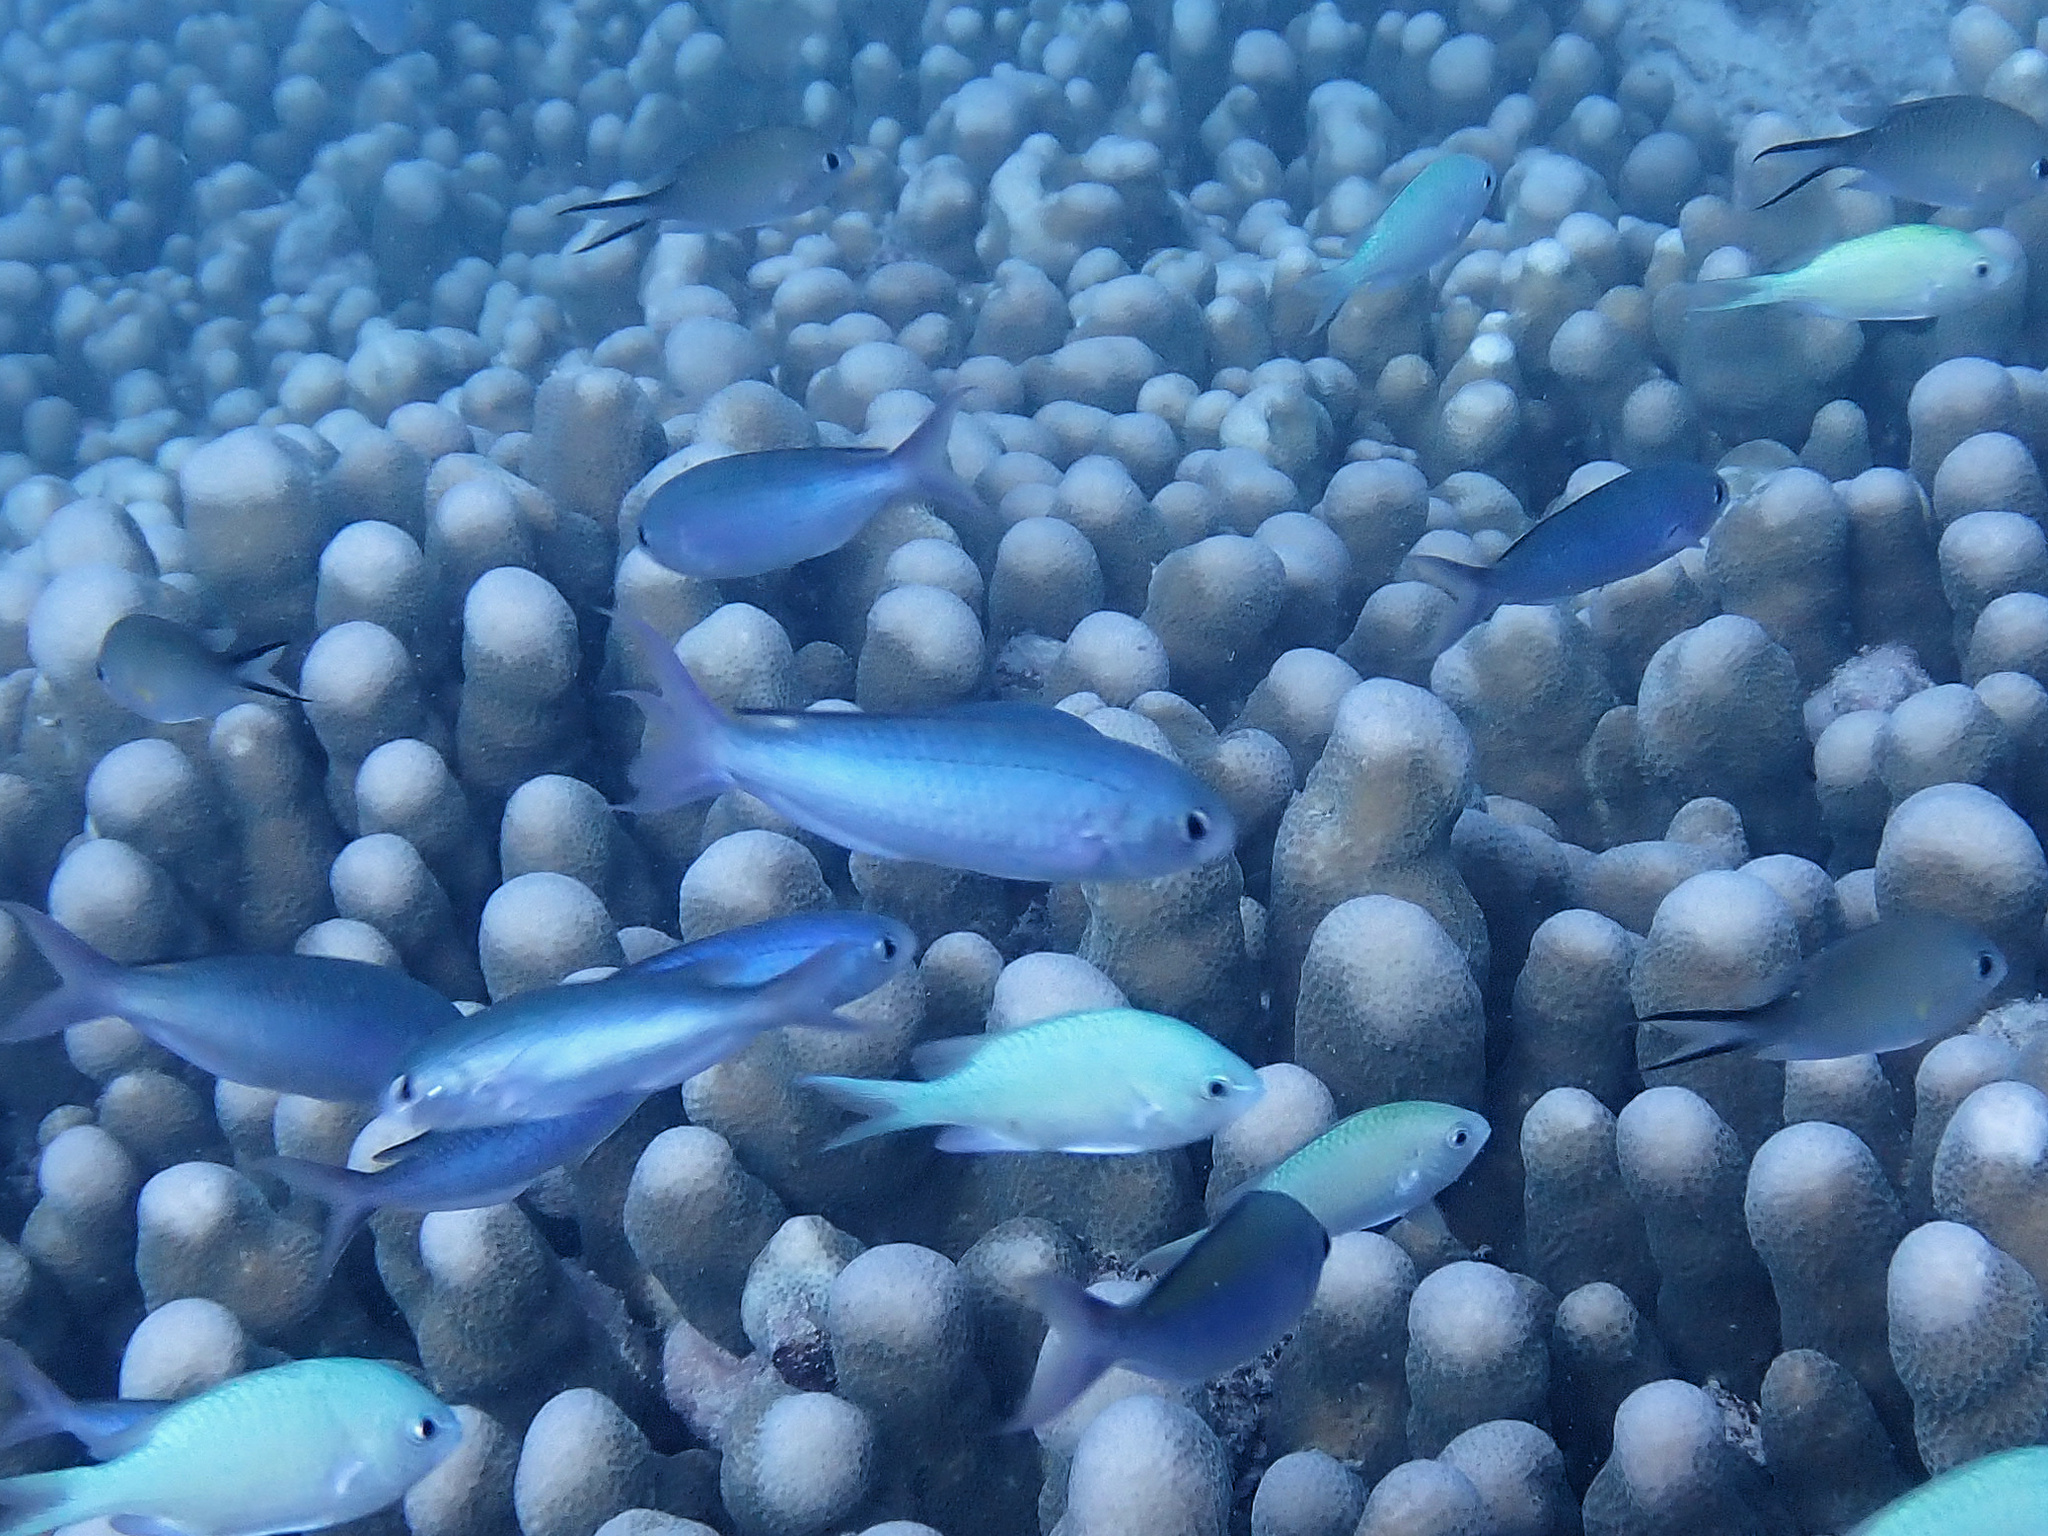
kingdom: Animalia
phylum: Chordata
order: Perciformes
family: Pomacentridae
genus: Lepidozygus
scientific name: Lepidozygus tapeinosoma
